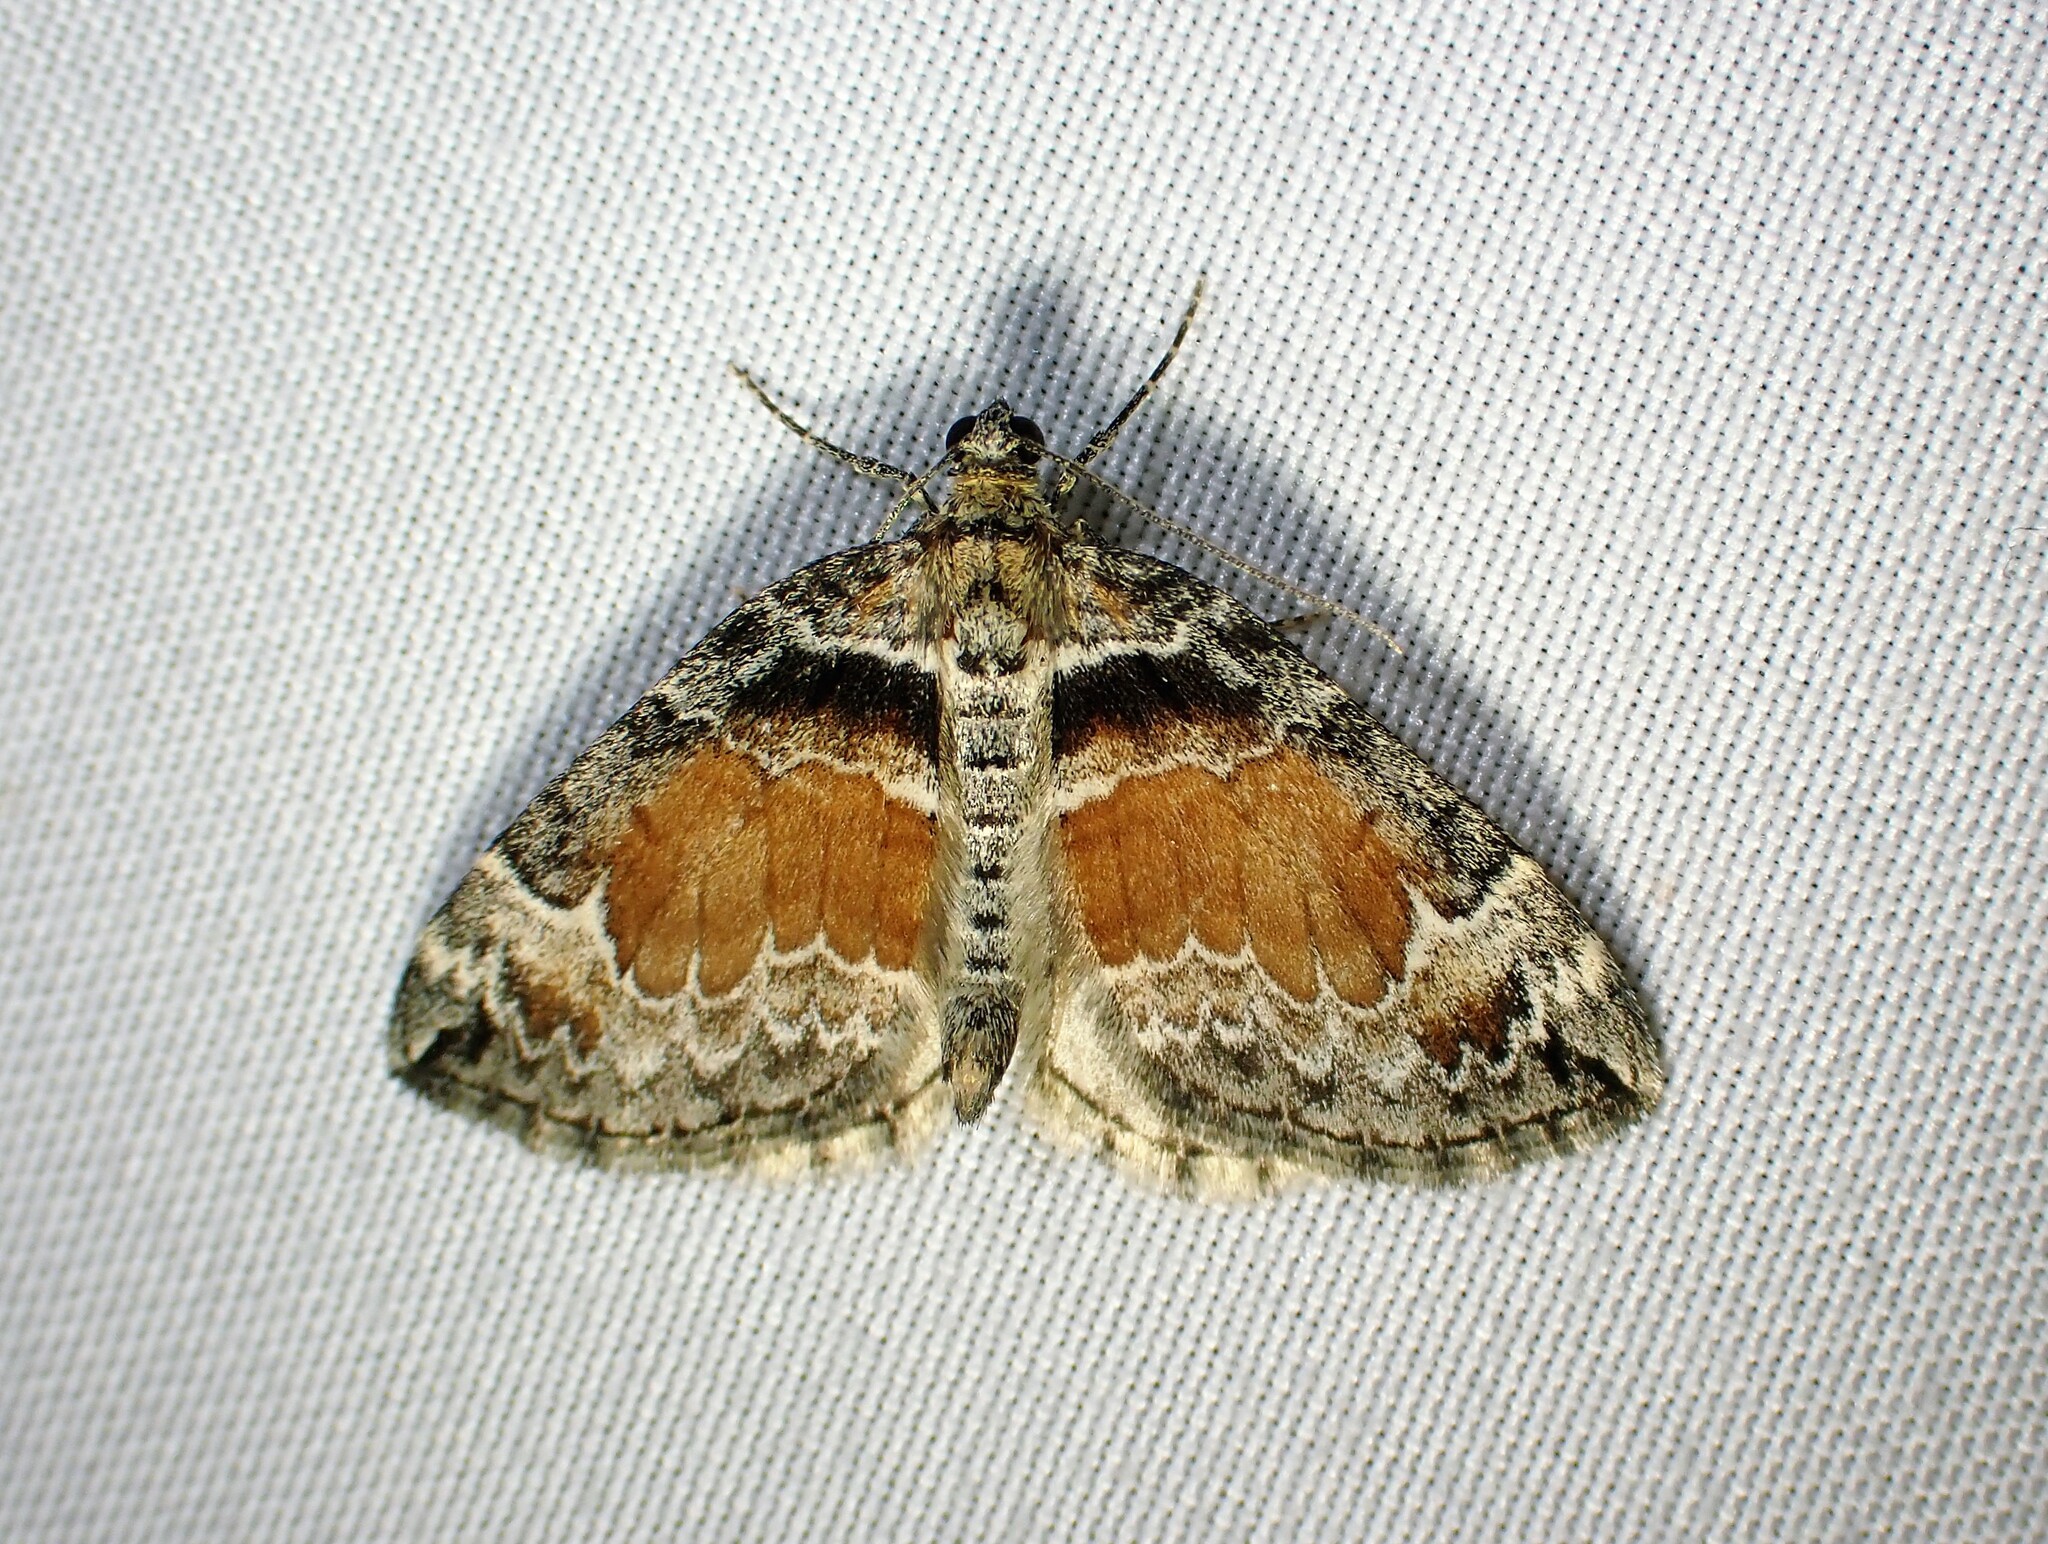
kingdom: Animalia
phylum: Arthropoda
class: Insecta
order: Lepidoptera
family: Geometridae
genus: Dysstroma
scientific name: Dysstroma hersiliata
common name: Orange-barred carpet
